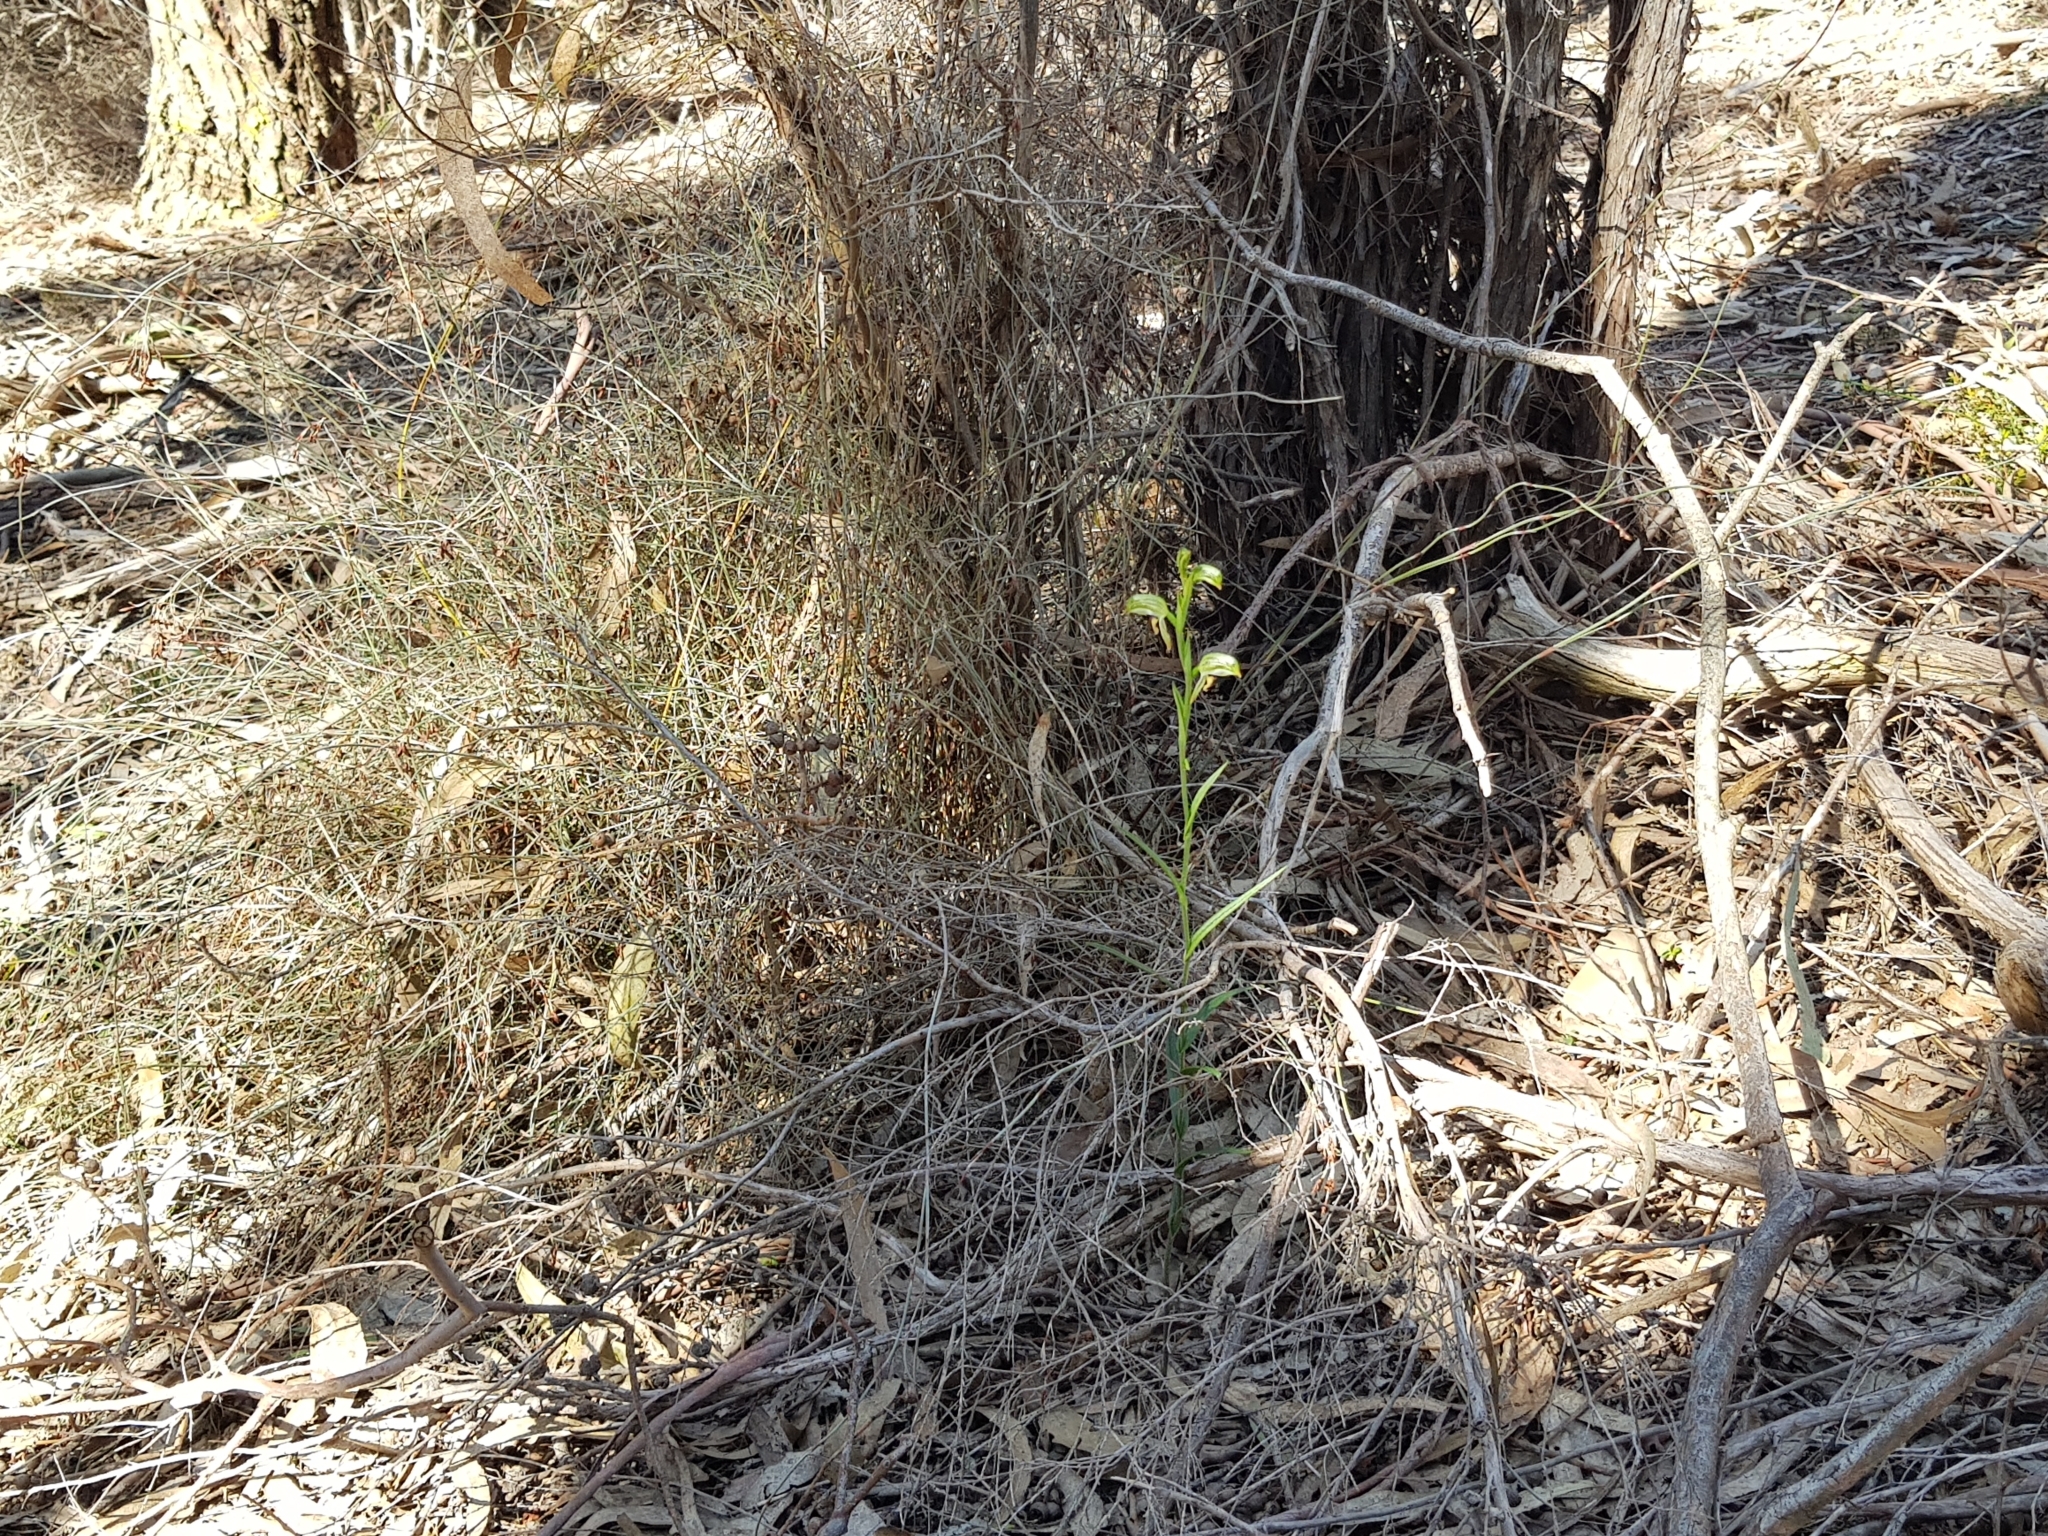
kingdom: Plantae
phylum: Tracheophyta
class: Liliopsida
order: Asparagales
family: Orchidaceae
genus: Pterostylis
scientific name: Pterostylis melagramma
